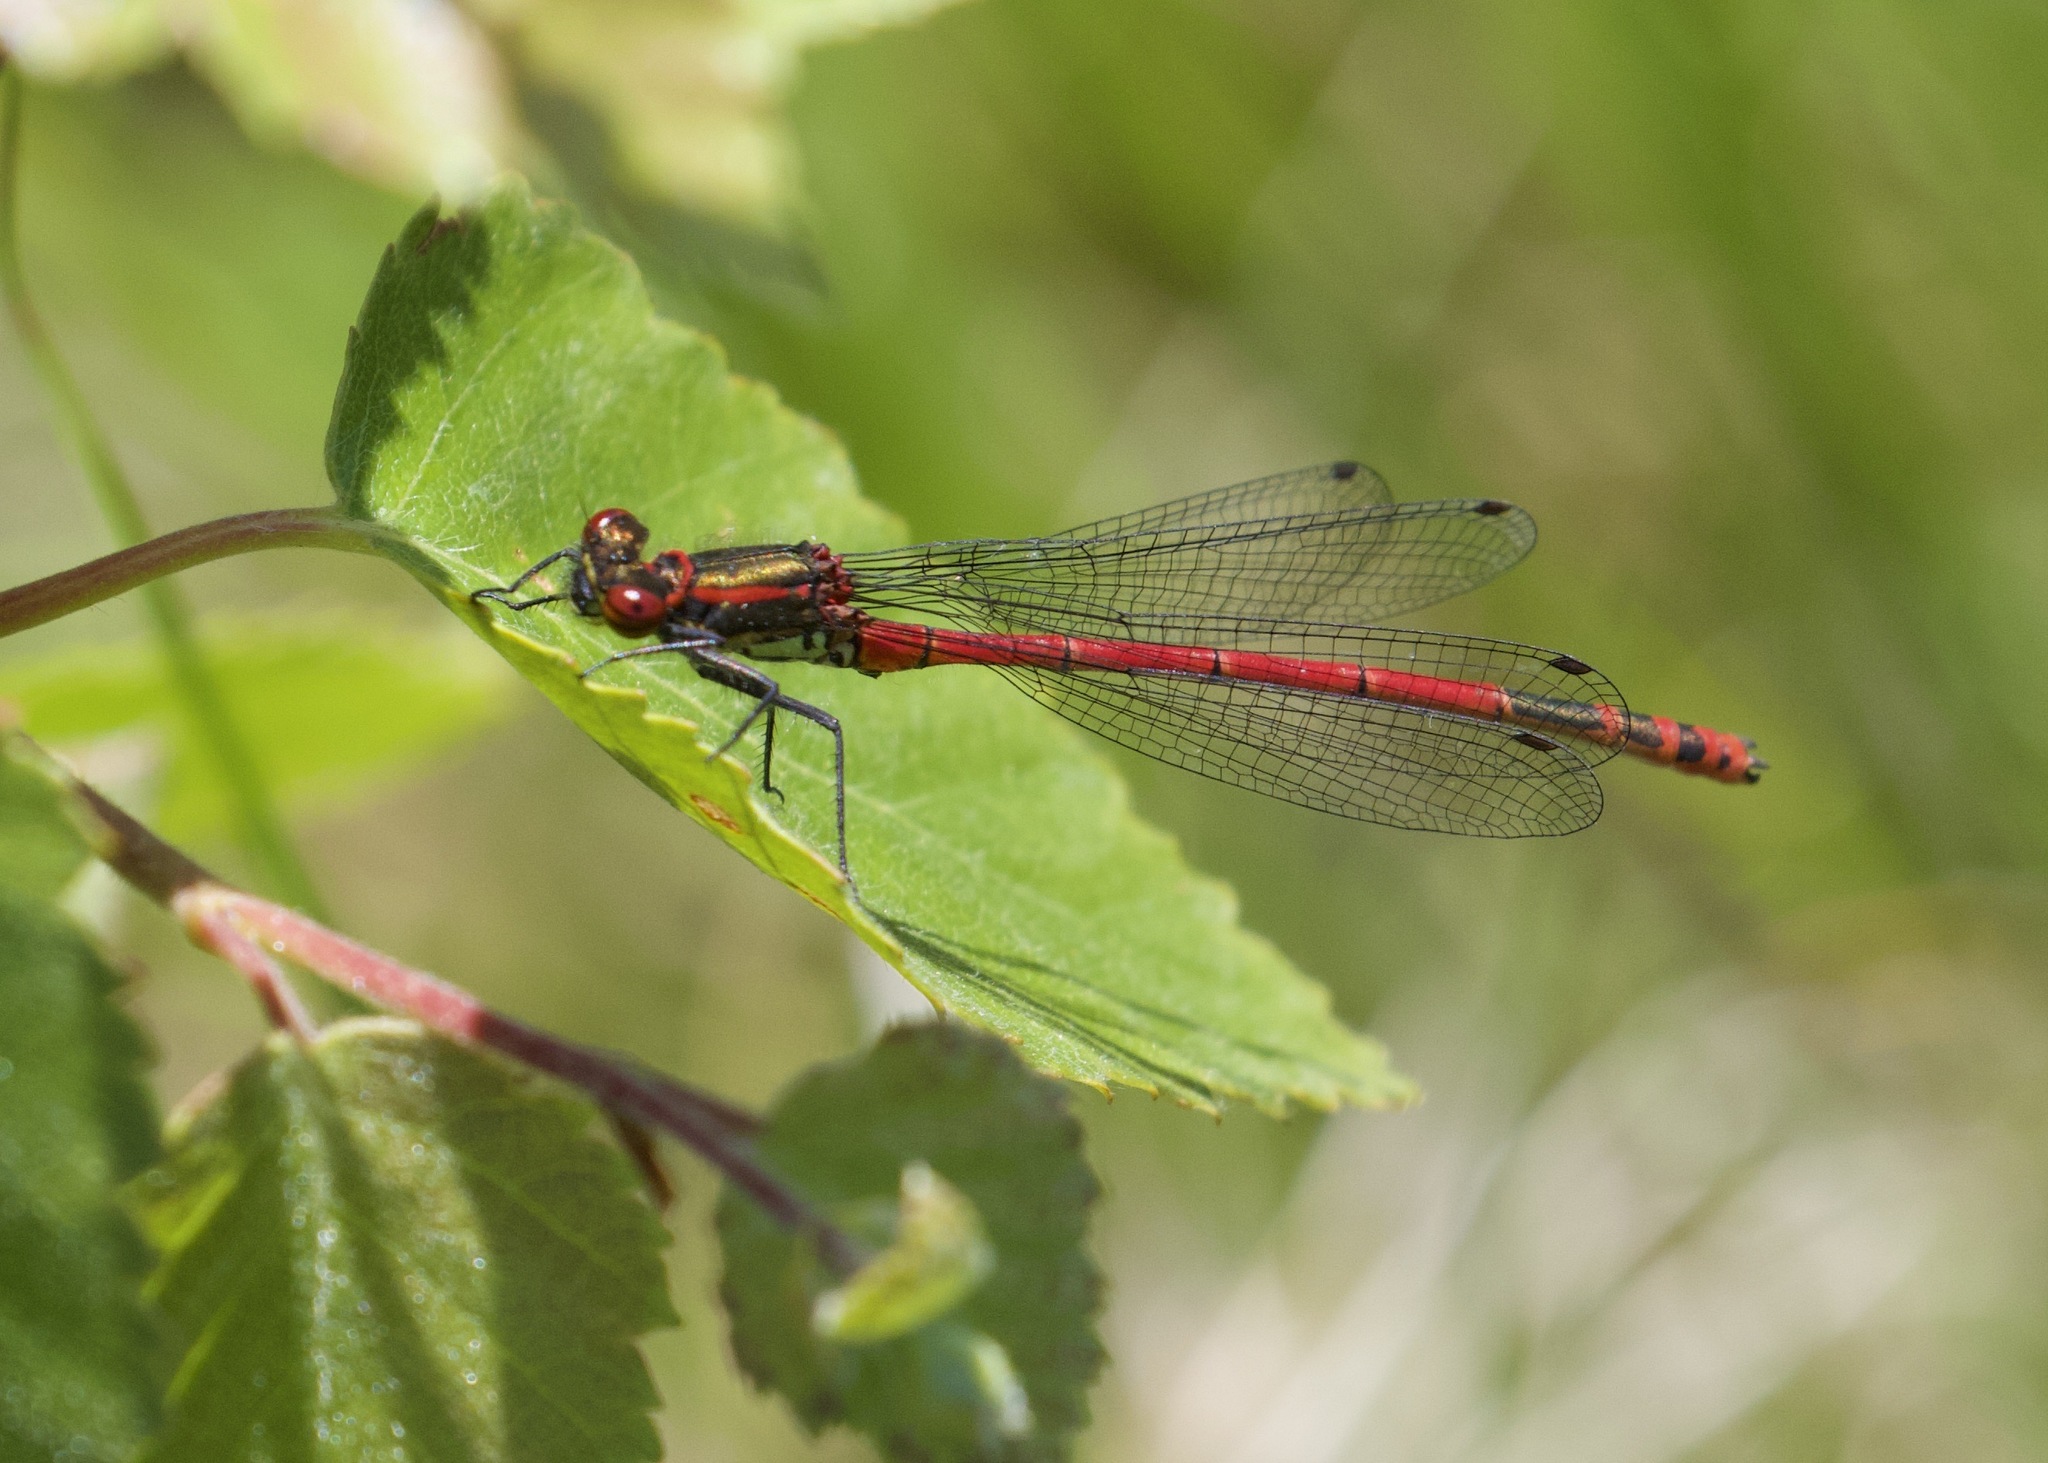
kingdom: Animalia
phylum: Arthropoda
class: Insecta
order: Odonata
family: Coenagrionidae
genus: Pyrrhosoma
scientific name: Pyrrhosoma nymphula
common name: Large red damsel
